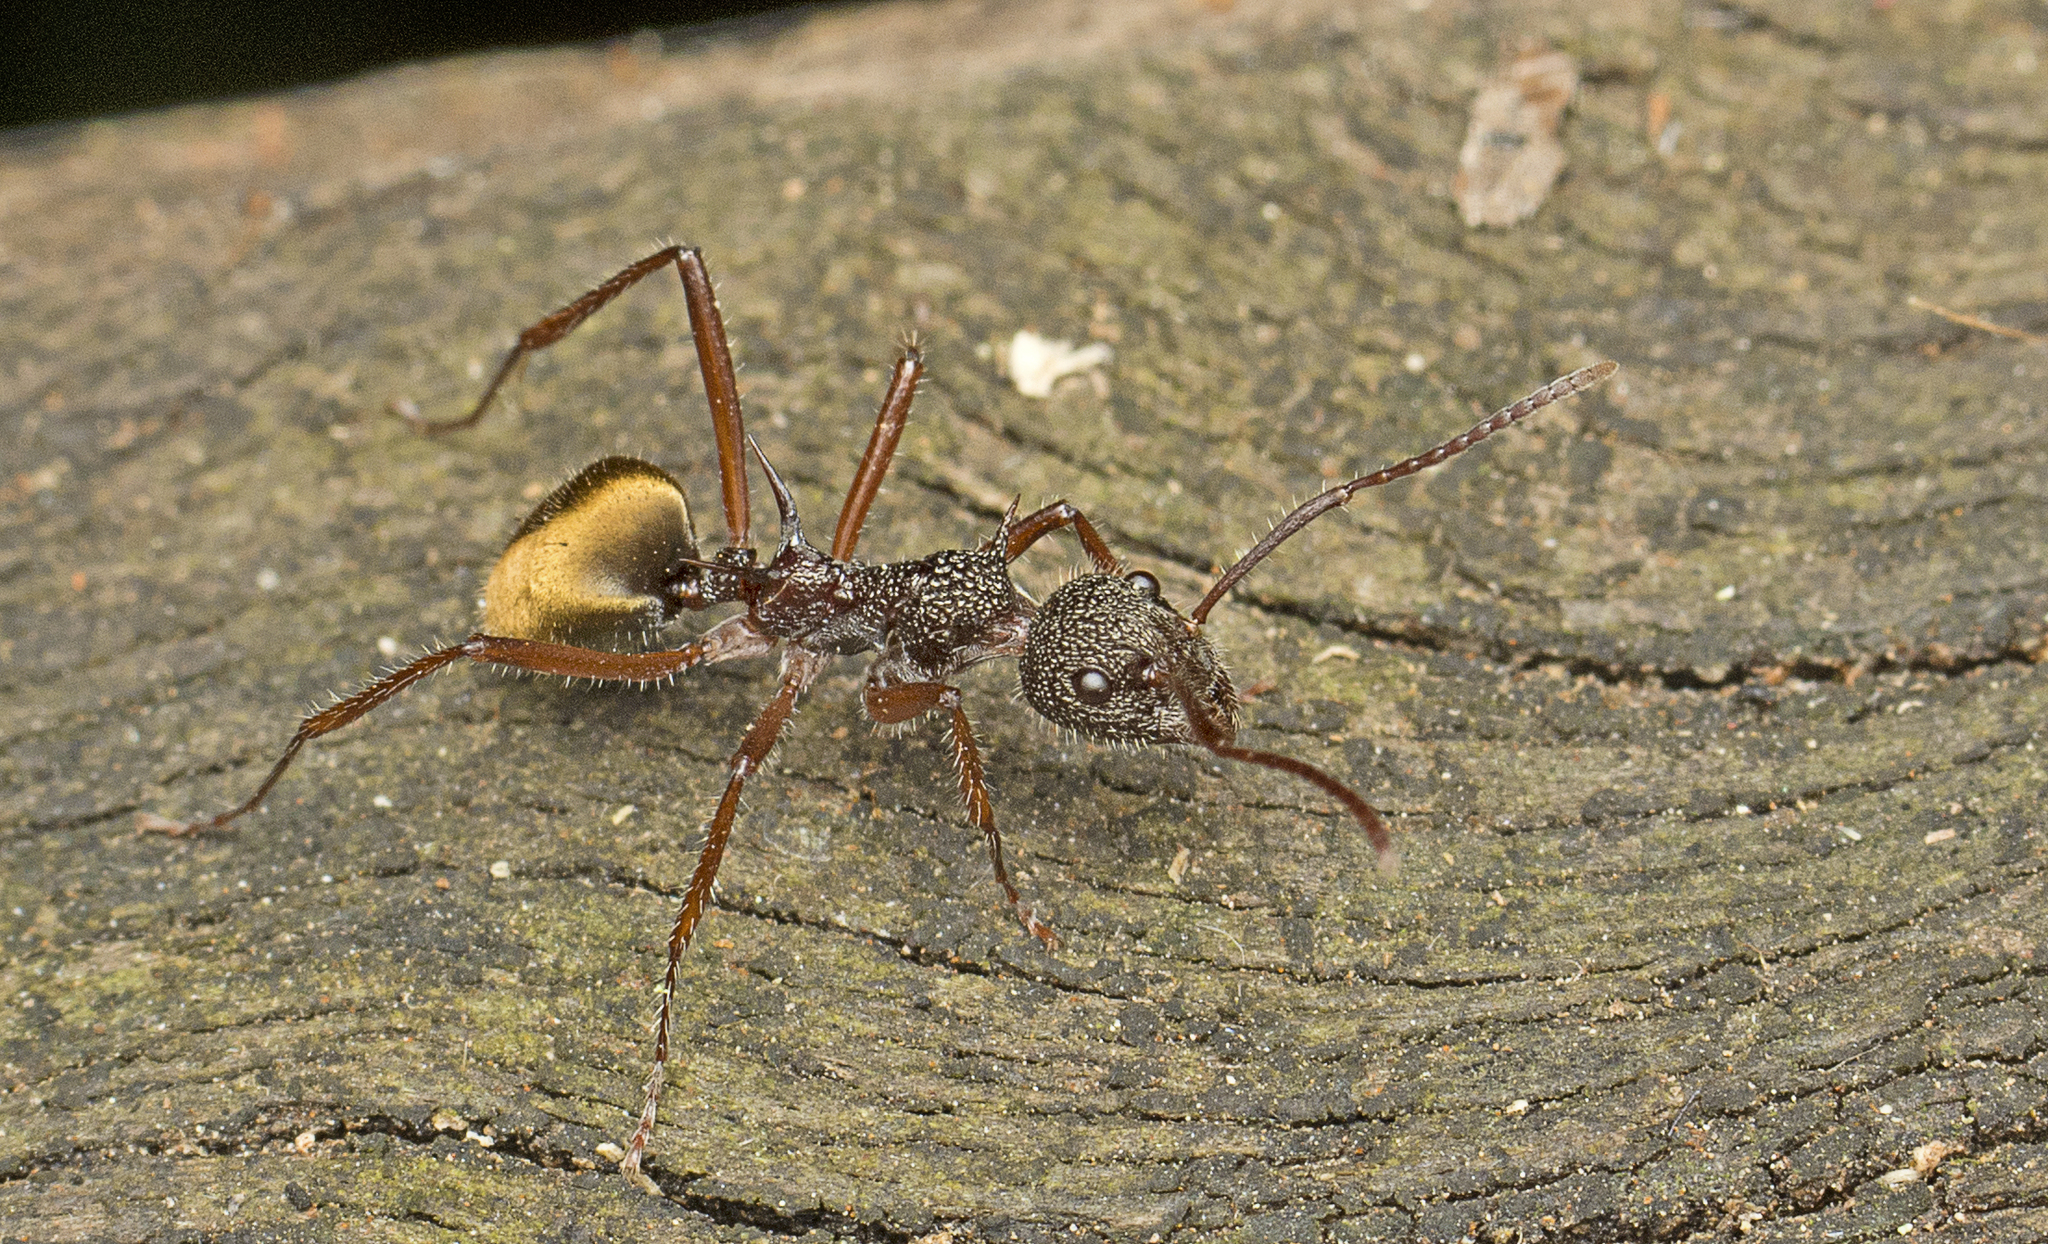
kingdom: Animalia
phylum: Arthropoda
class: Insecta
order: Hymenoptera
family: Formicidae
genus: Dolichoderus
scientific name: Dolichoderus extensispinus
